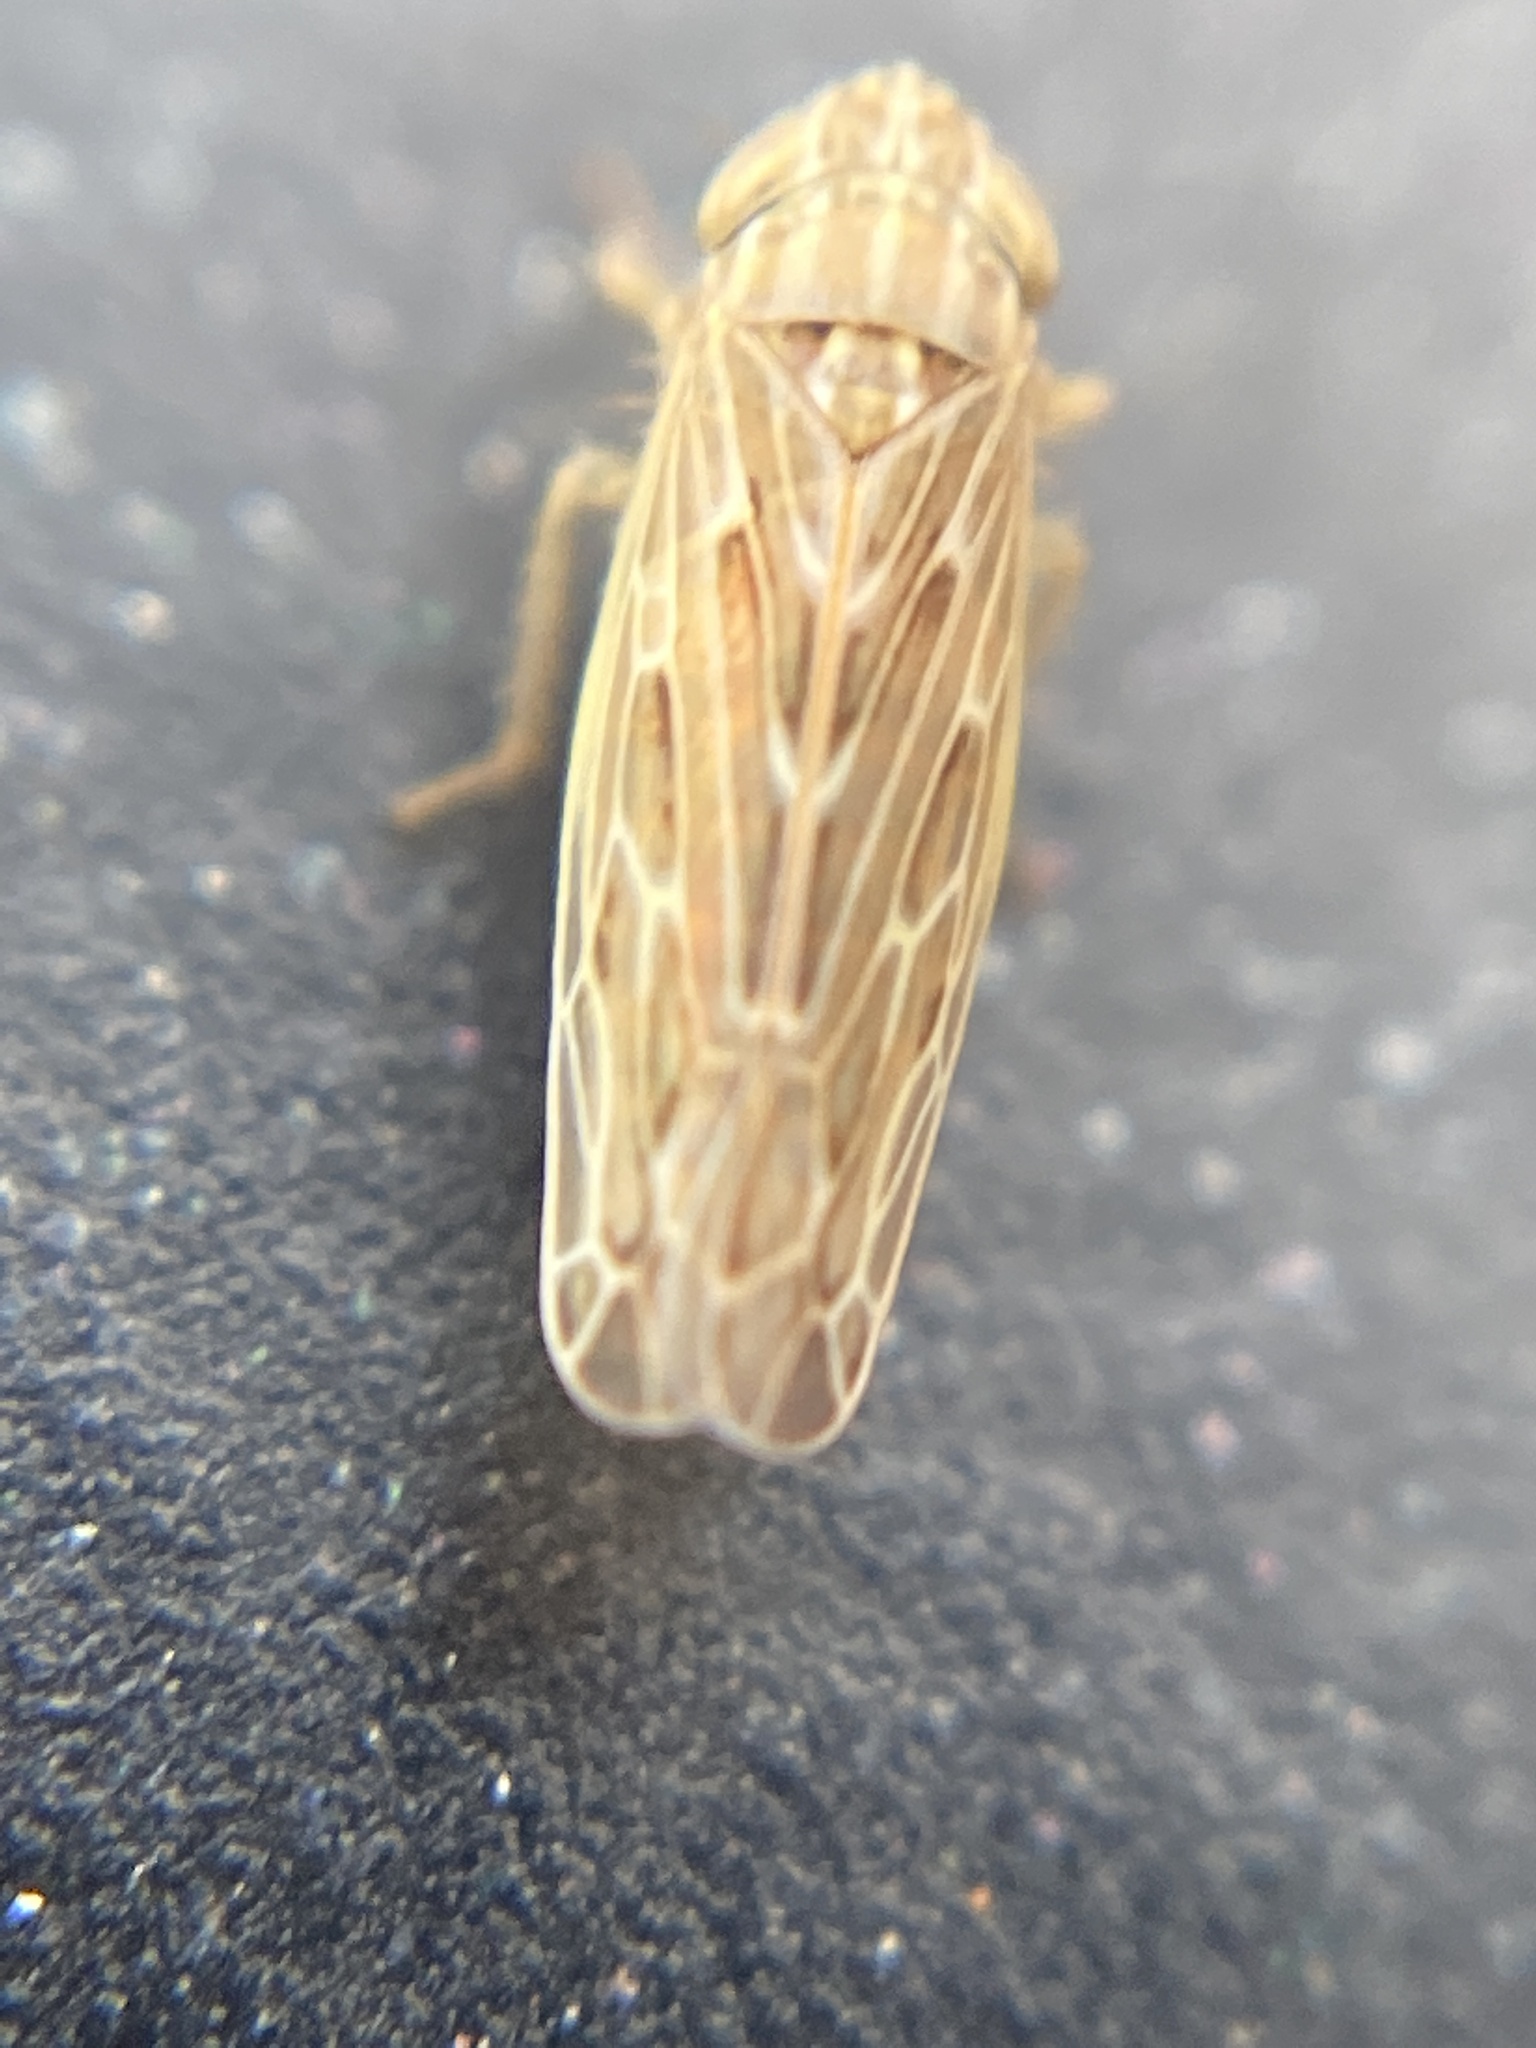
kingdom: Animalia
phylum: Arthropoda
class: Insecta
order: Hemiptera
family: Cicadellidae
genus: Psammotettix
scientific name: Psammotettix alienus
